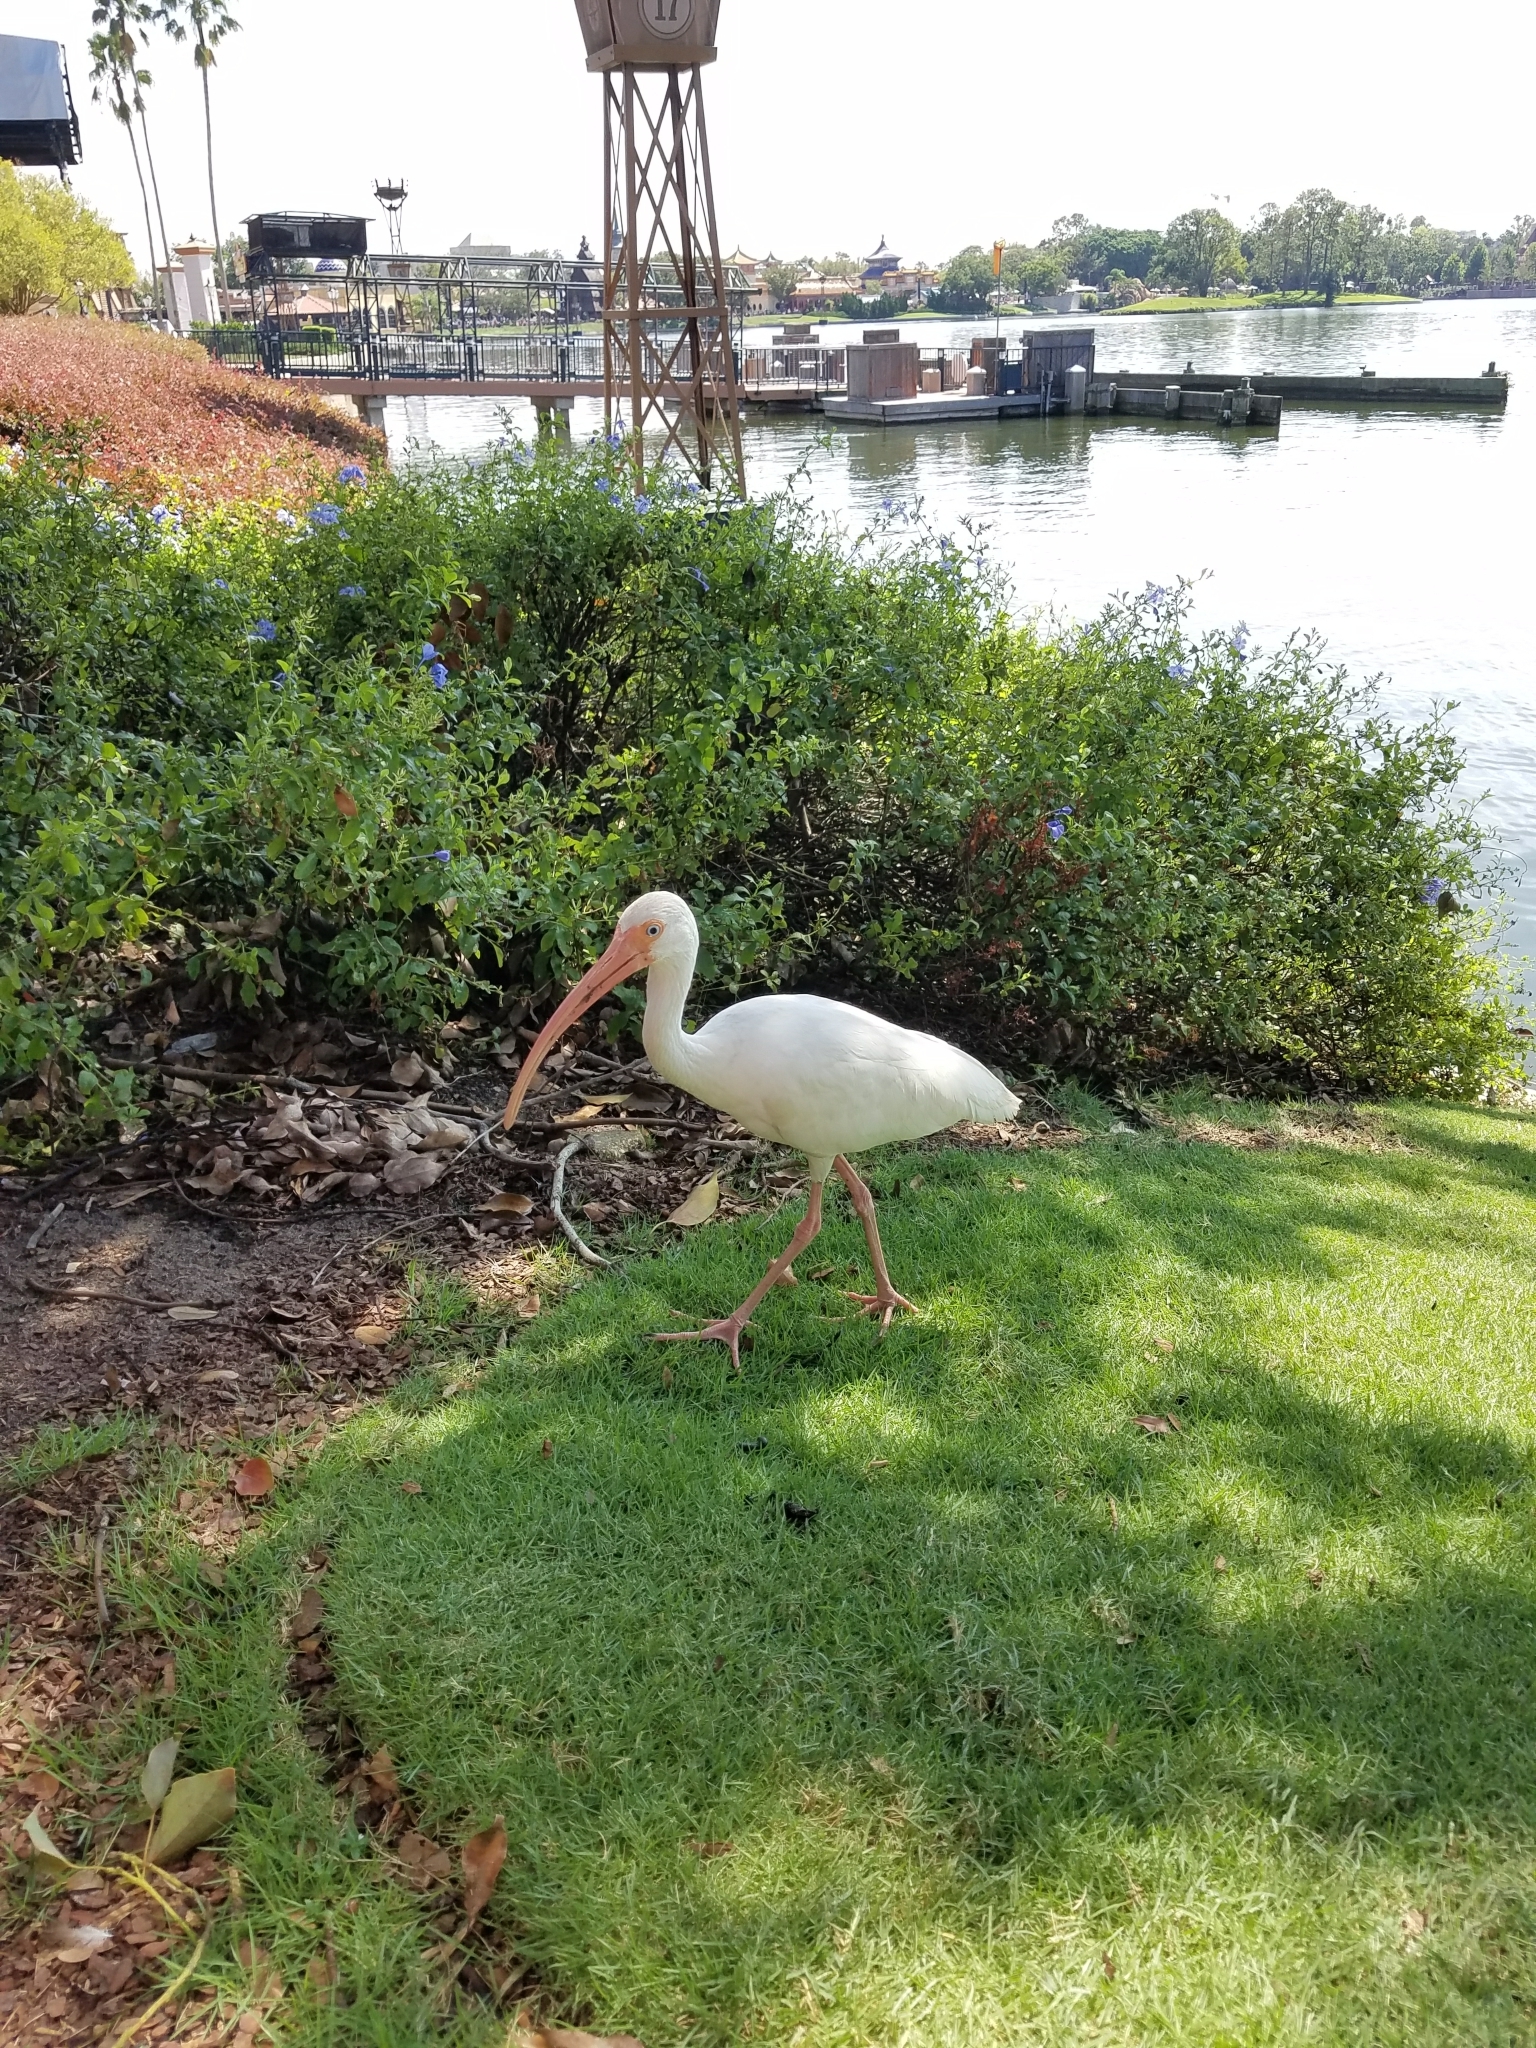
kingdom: Animalia
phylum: Chordata
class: Aves
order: Pelecaniformes
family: Threskiornithidae
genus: Eudocimus
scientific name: Eudocimus albus
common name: White ibis
